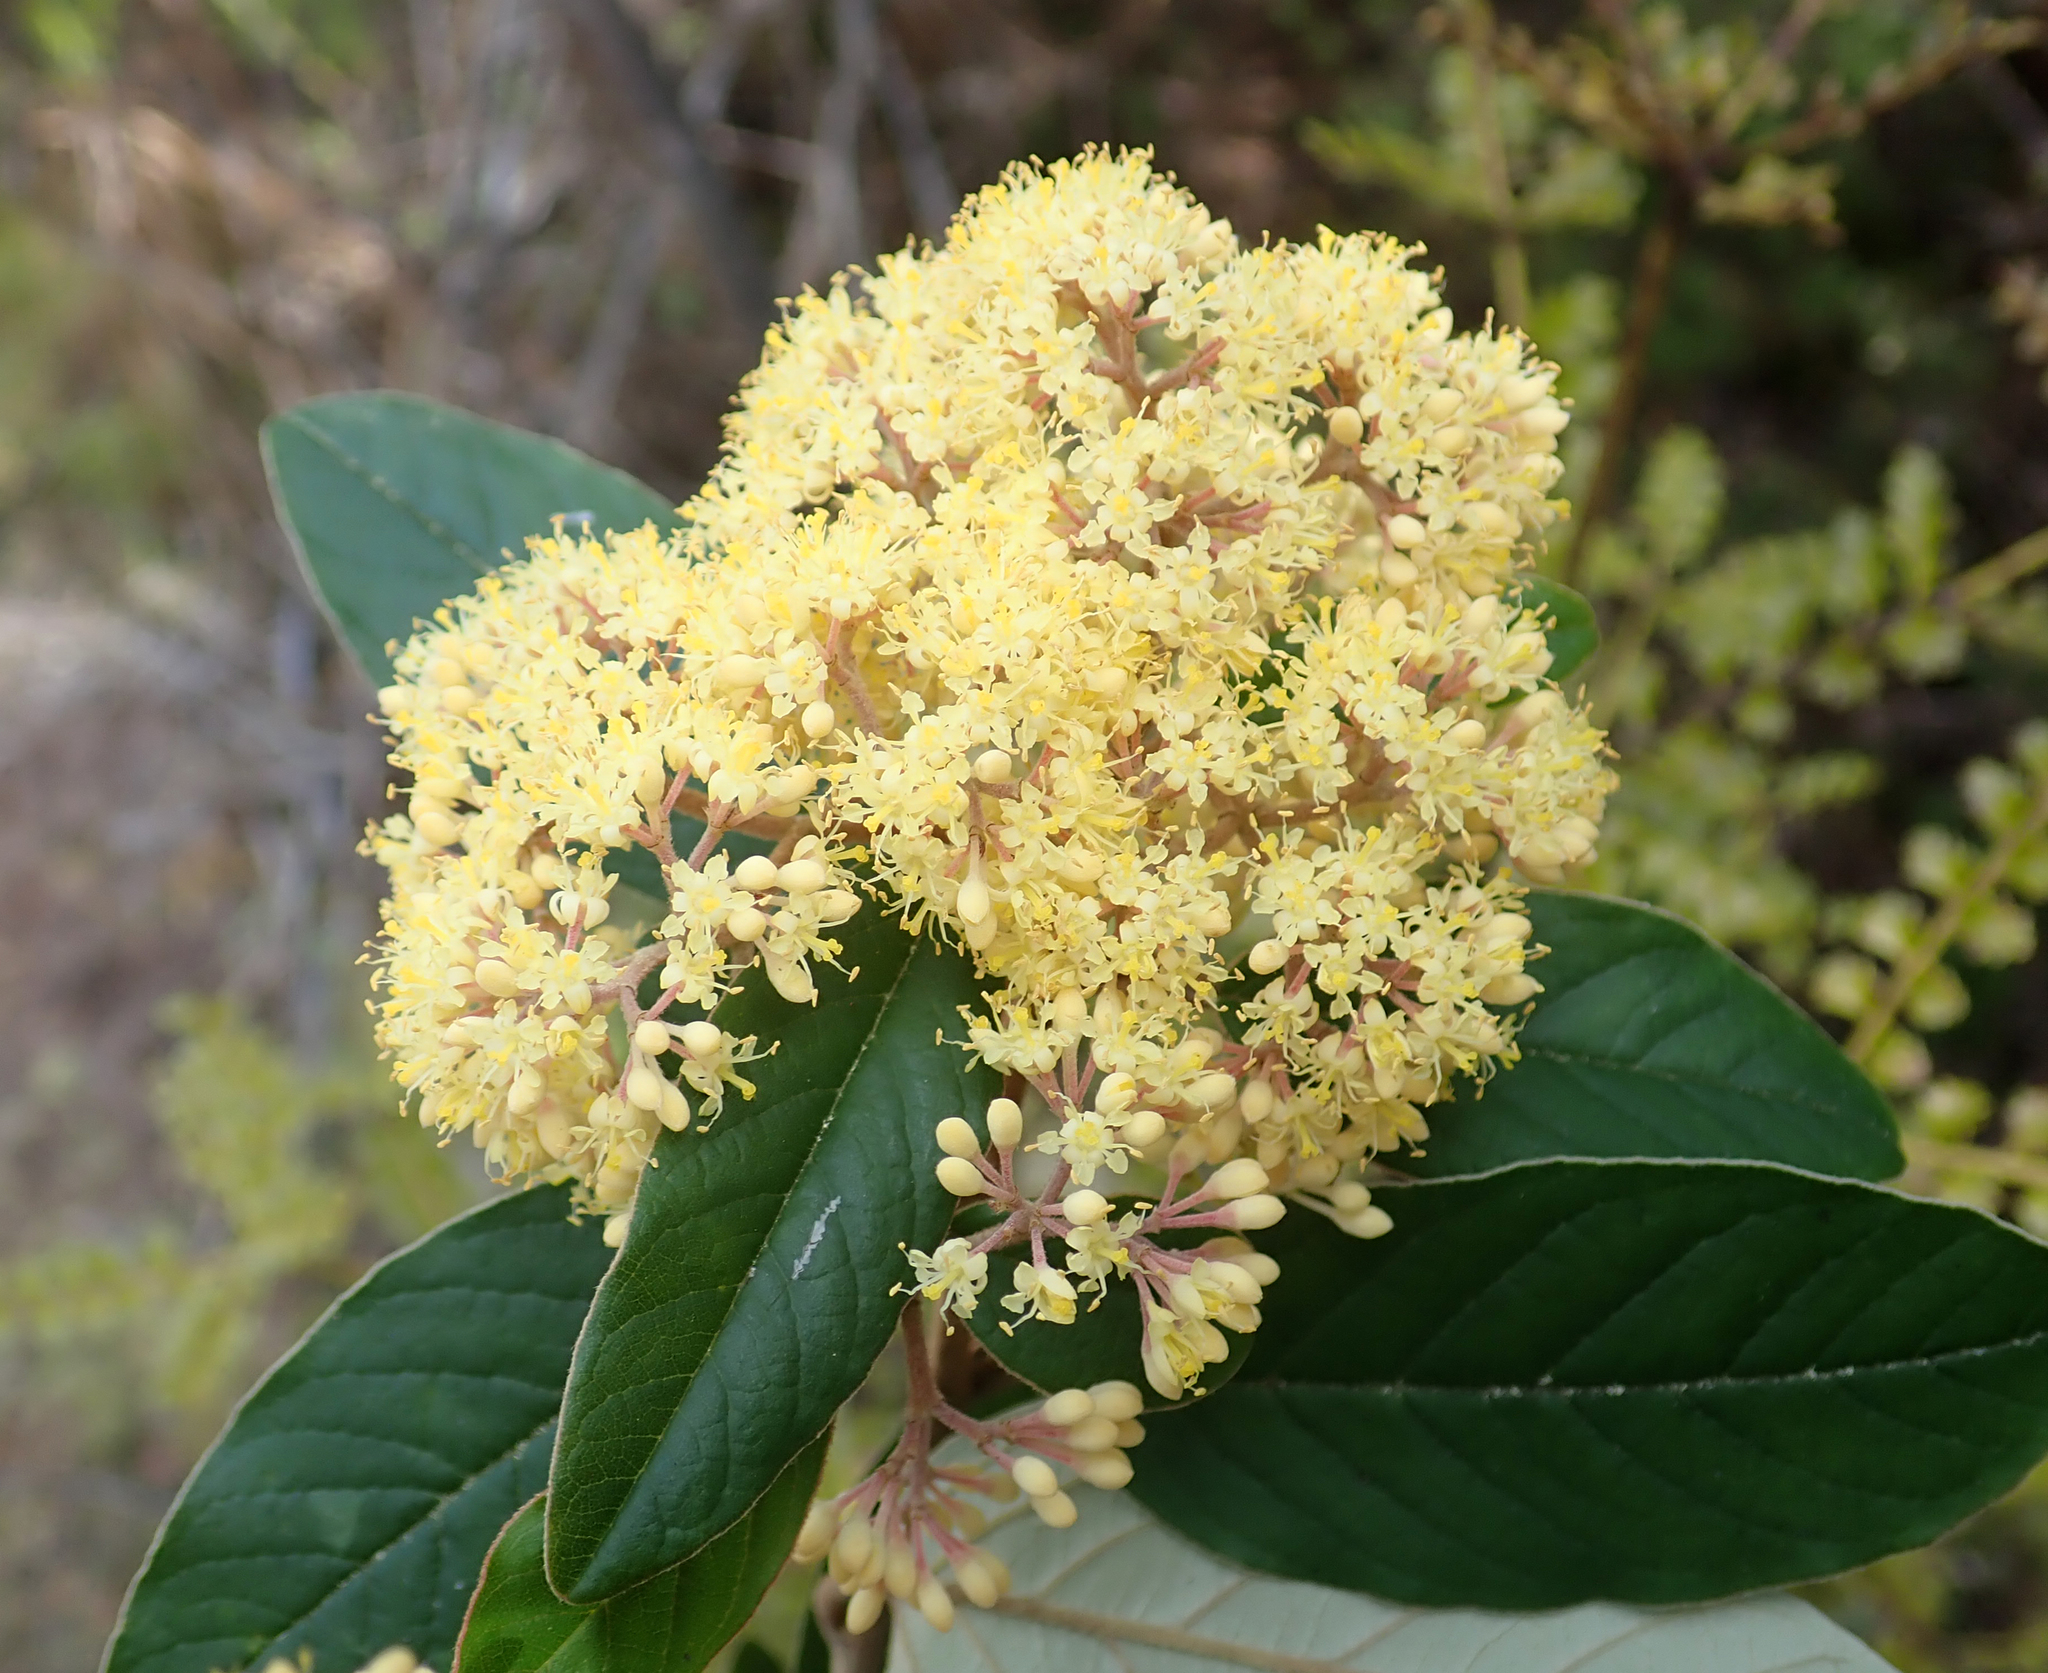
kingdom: Plantae
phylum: Tracheophyta
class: Magnoliopsida
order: Rosales
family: Rhamnaceae
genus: Pomaderris
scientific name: Pomaderris kumeraho
